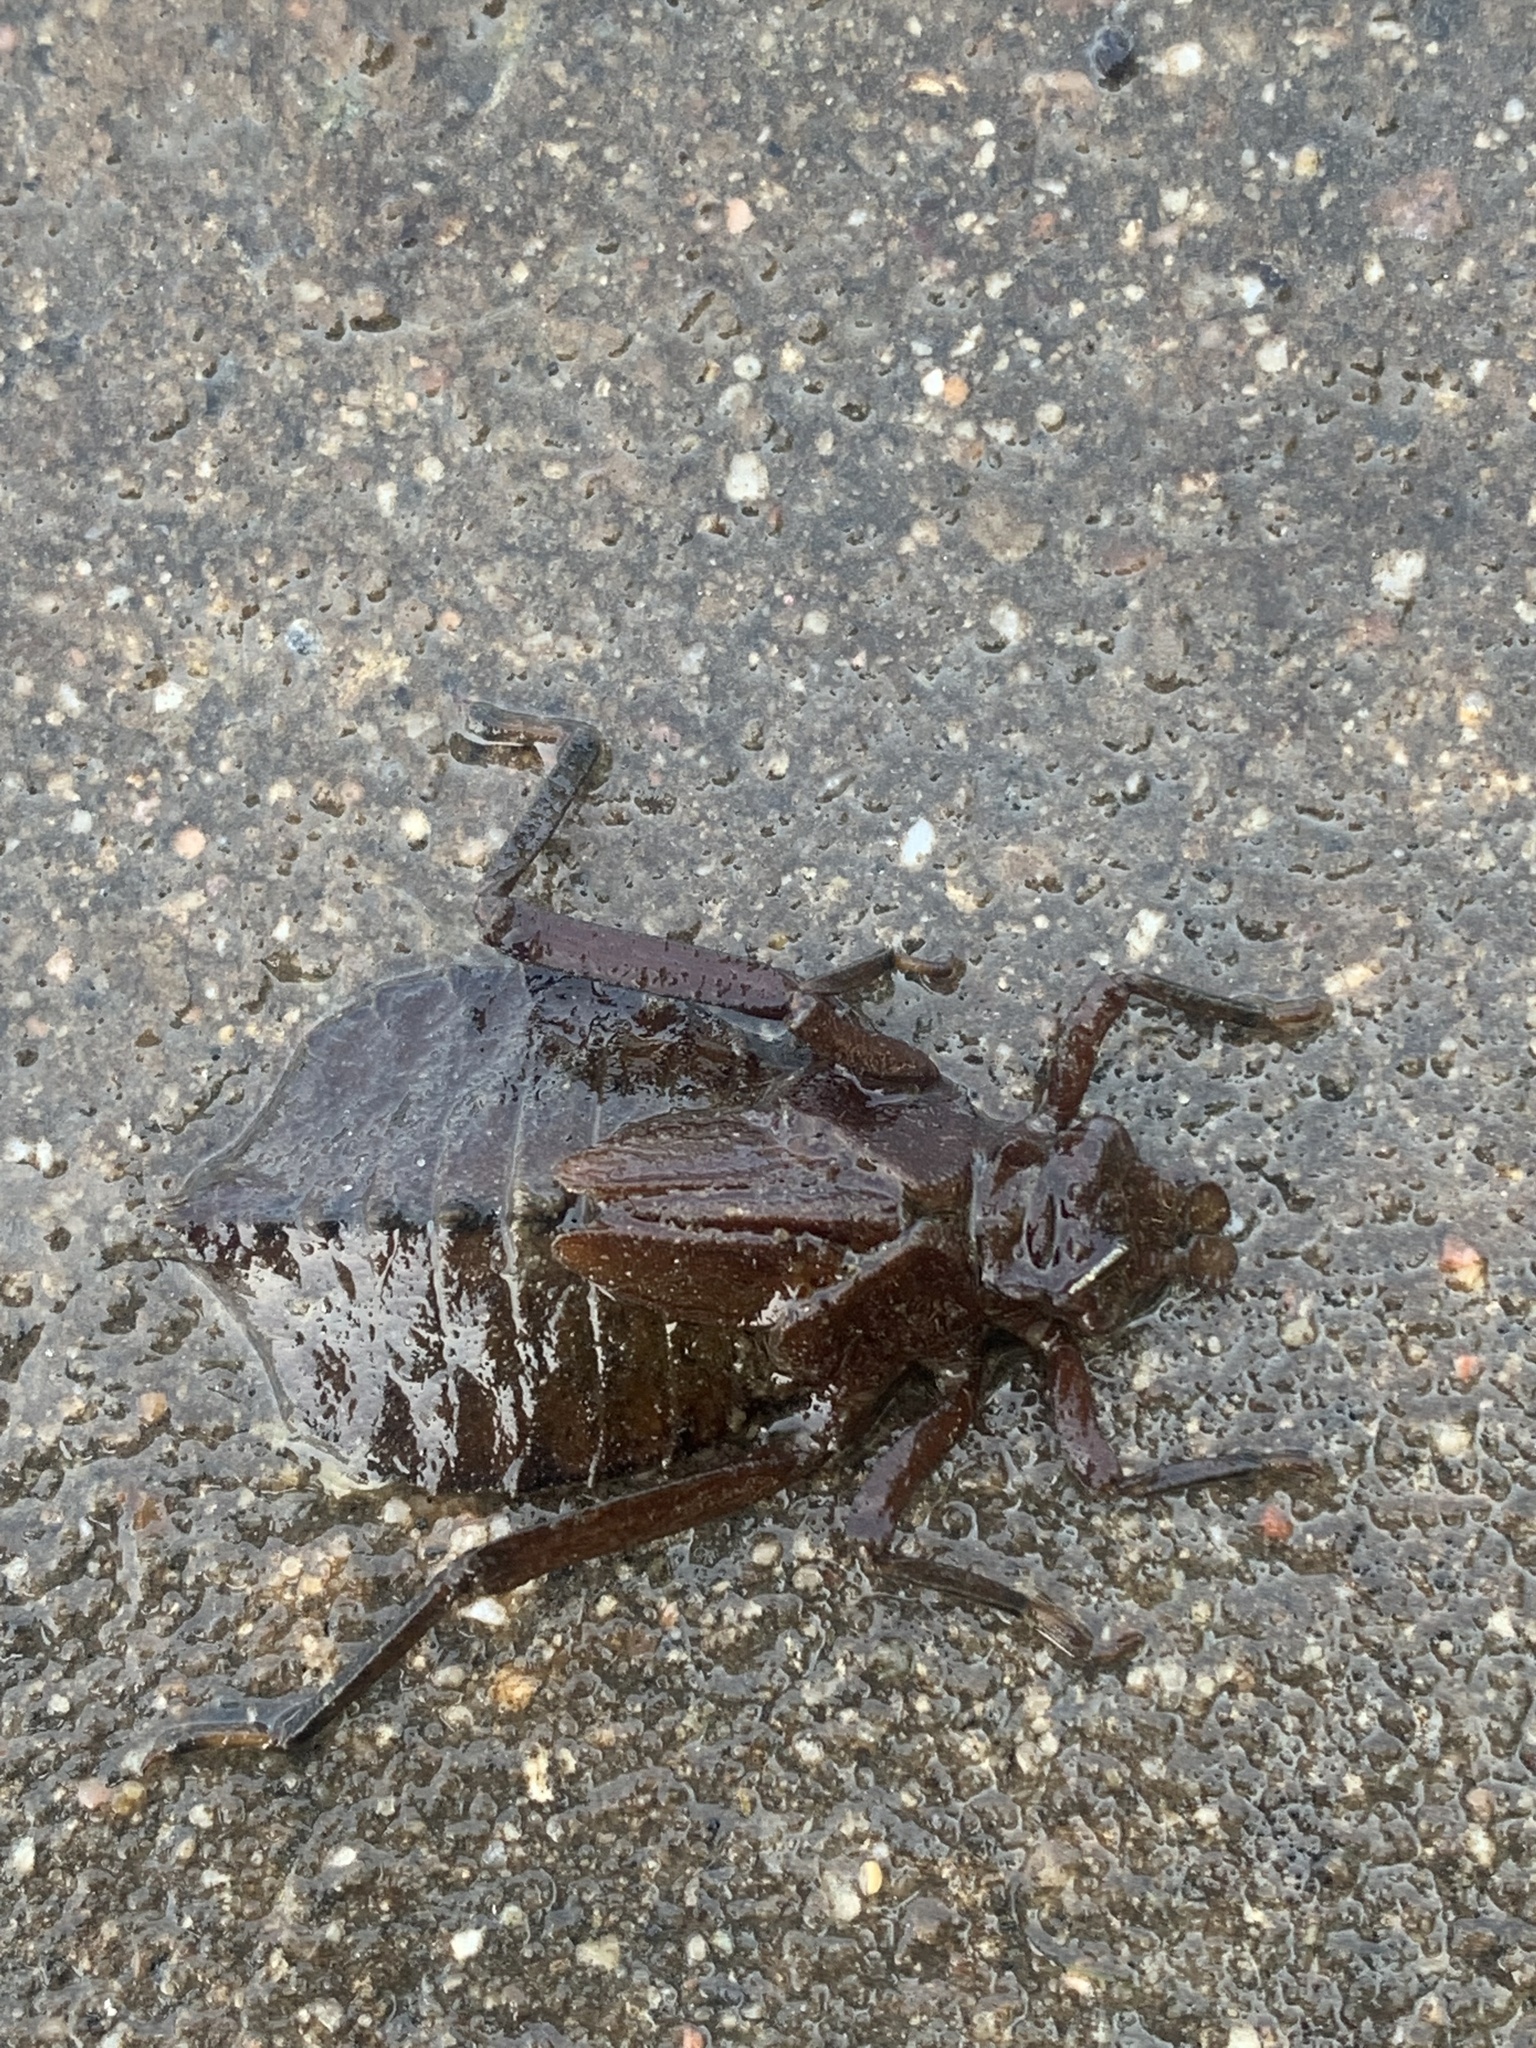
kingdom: Animalia
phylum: Arthropoda
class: Insecta
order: Odonata
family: Gomphidae
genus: Hagenius
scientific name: Hagenius brevistylus
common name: Dragonhunter
